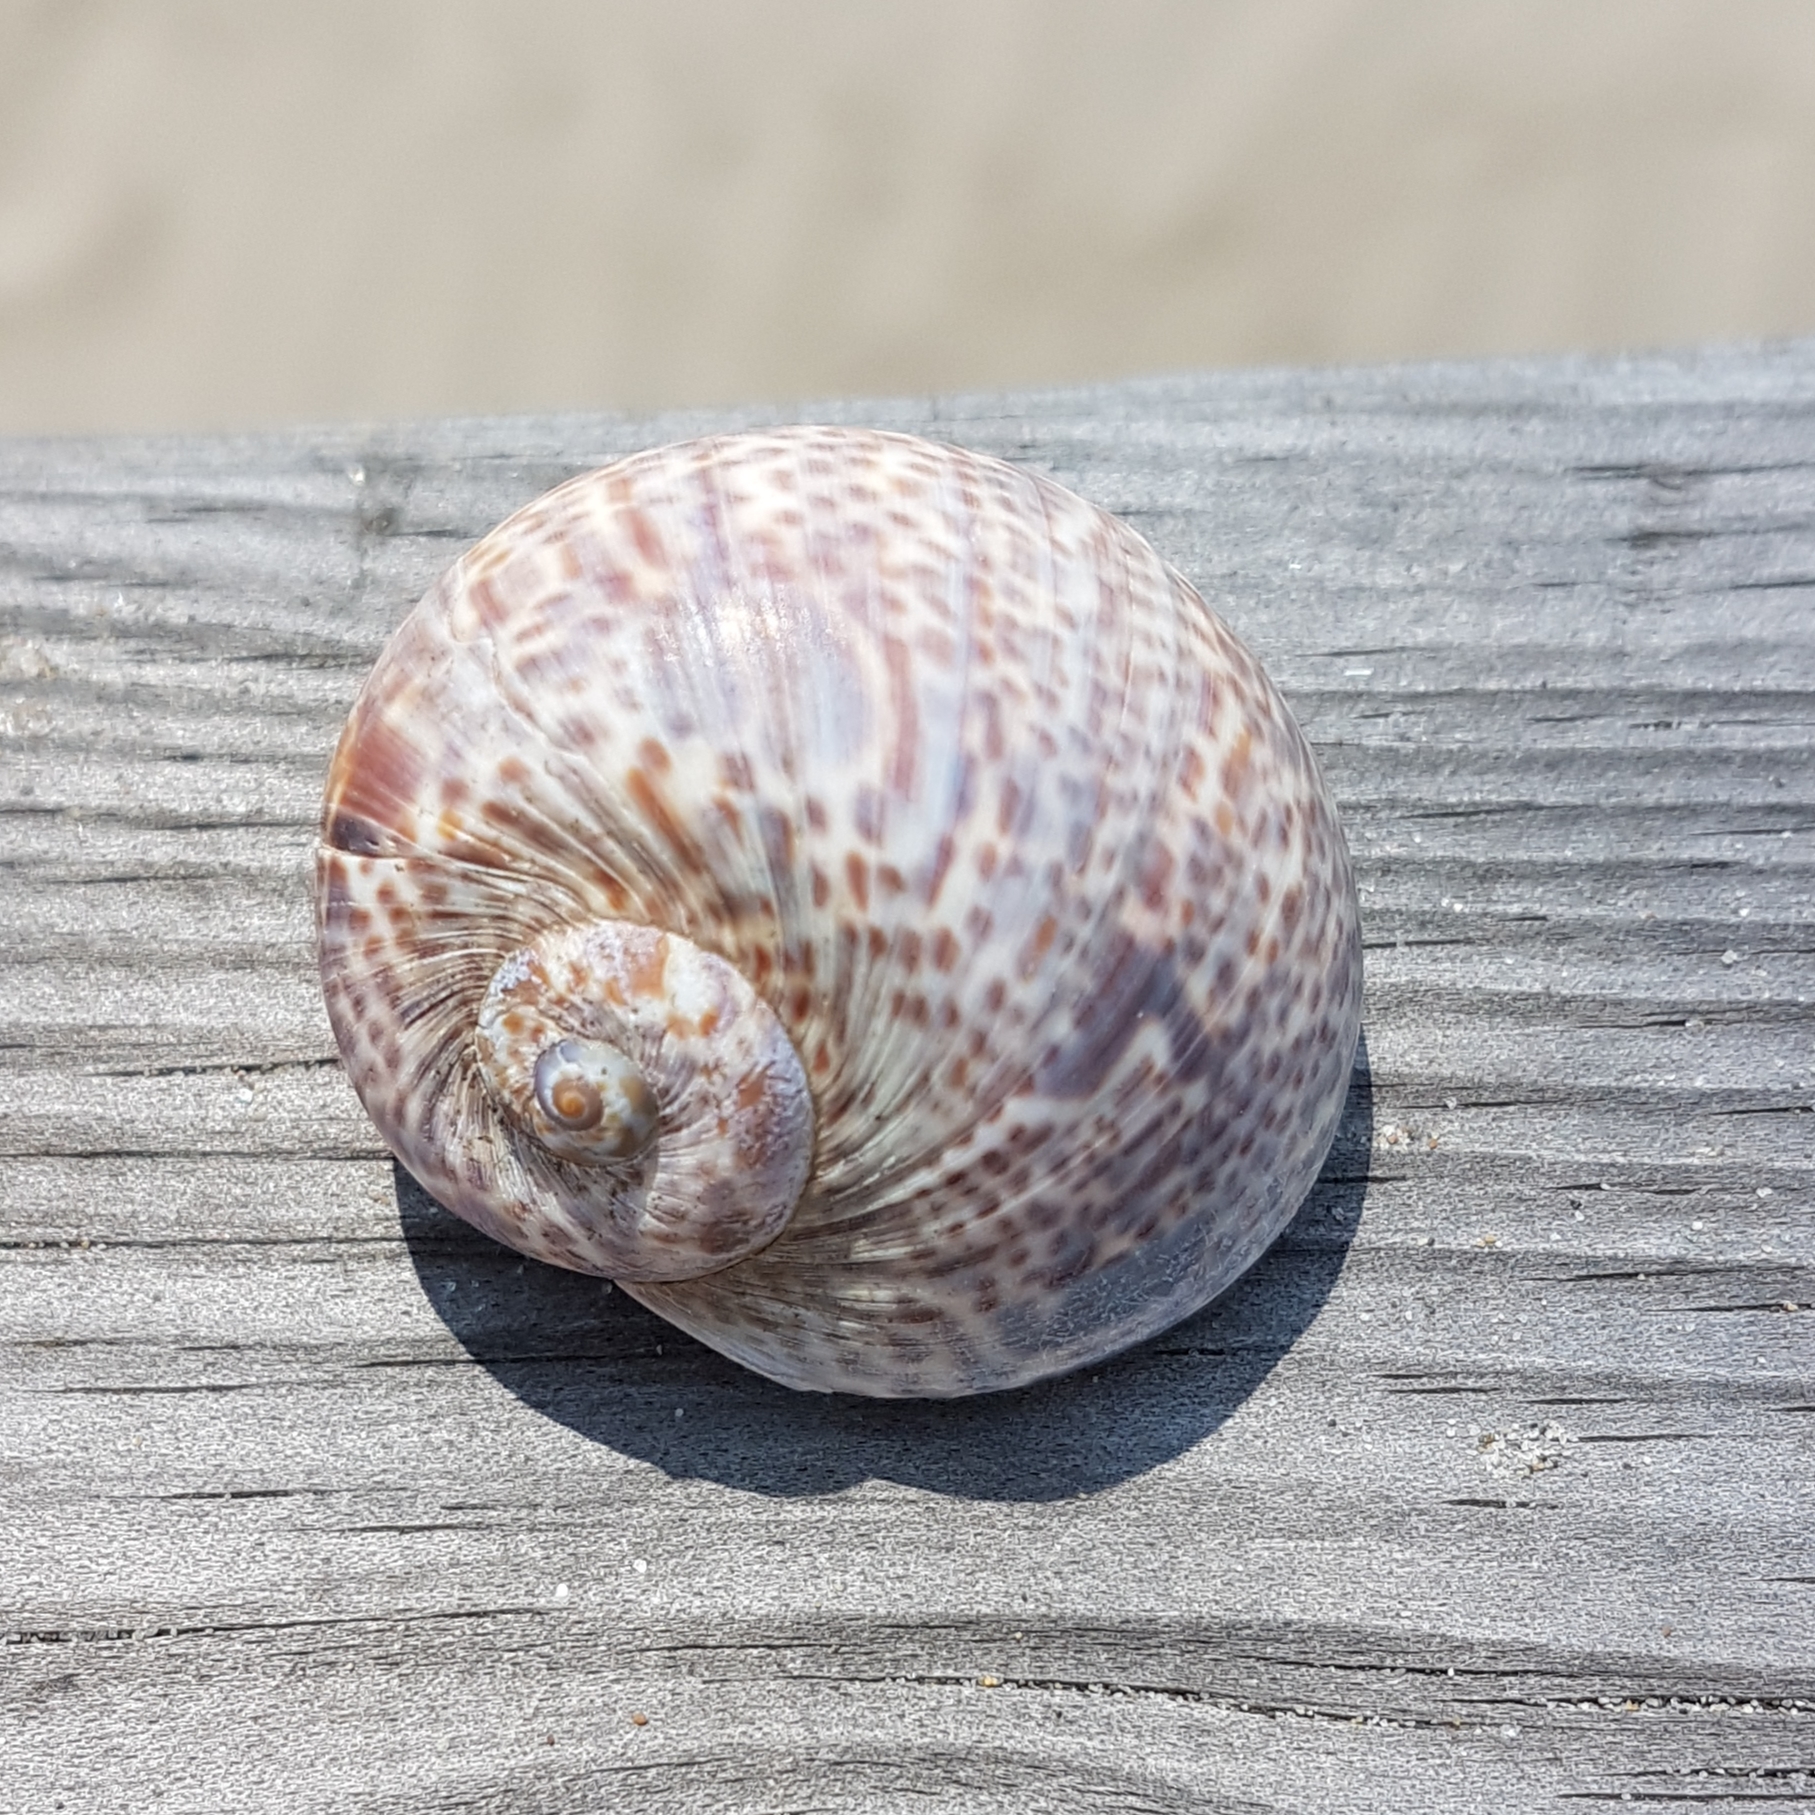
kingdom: Animalia
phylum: Mollusca
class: Gastropoda
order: Littorinimorpha
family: Naticidae
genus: Naticarius
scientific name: Naticarius hebraeus
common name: Hebrew moon shell
